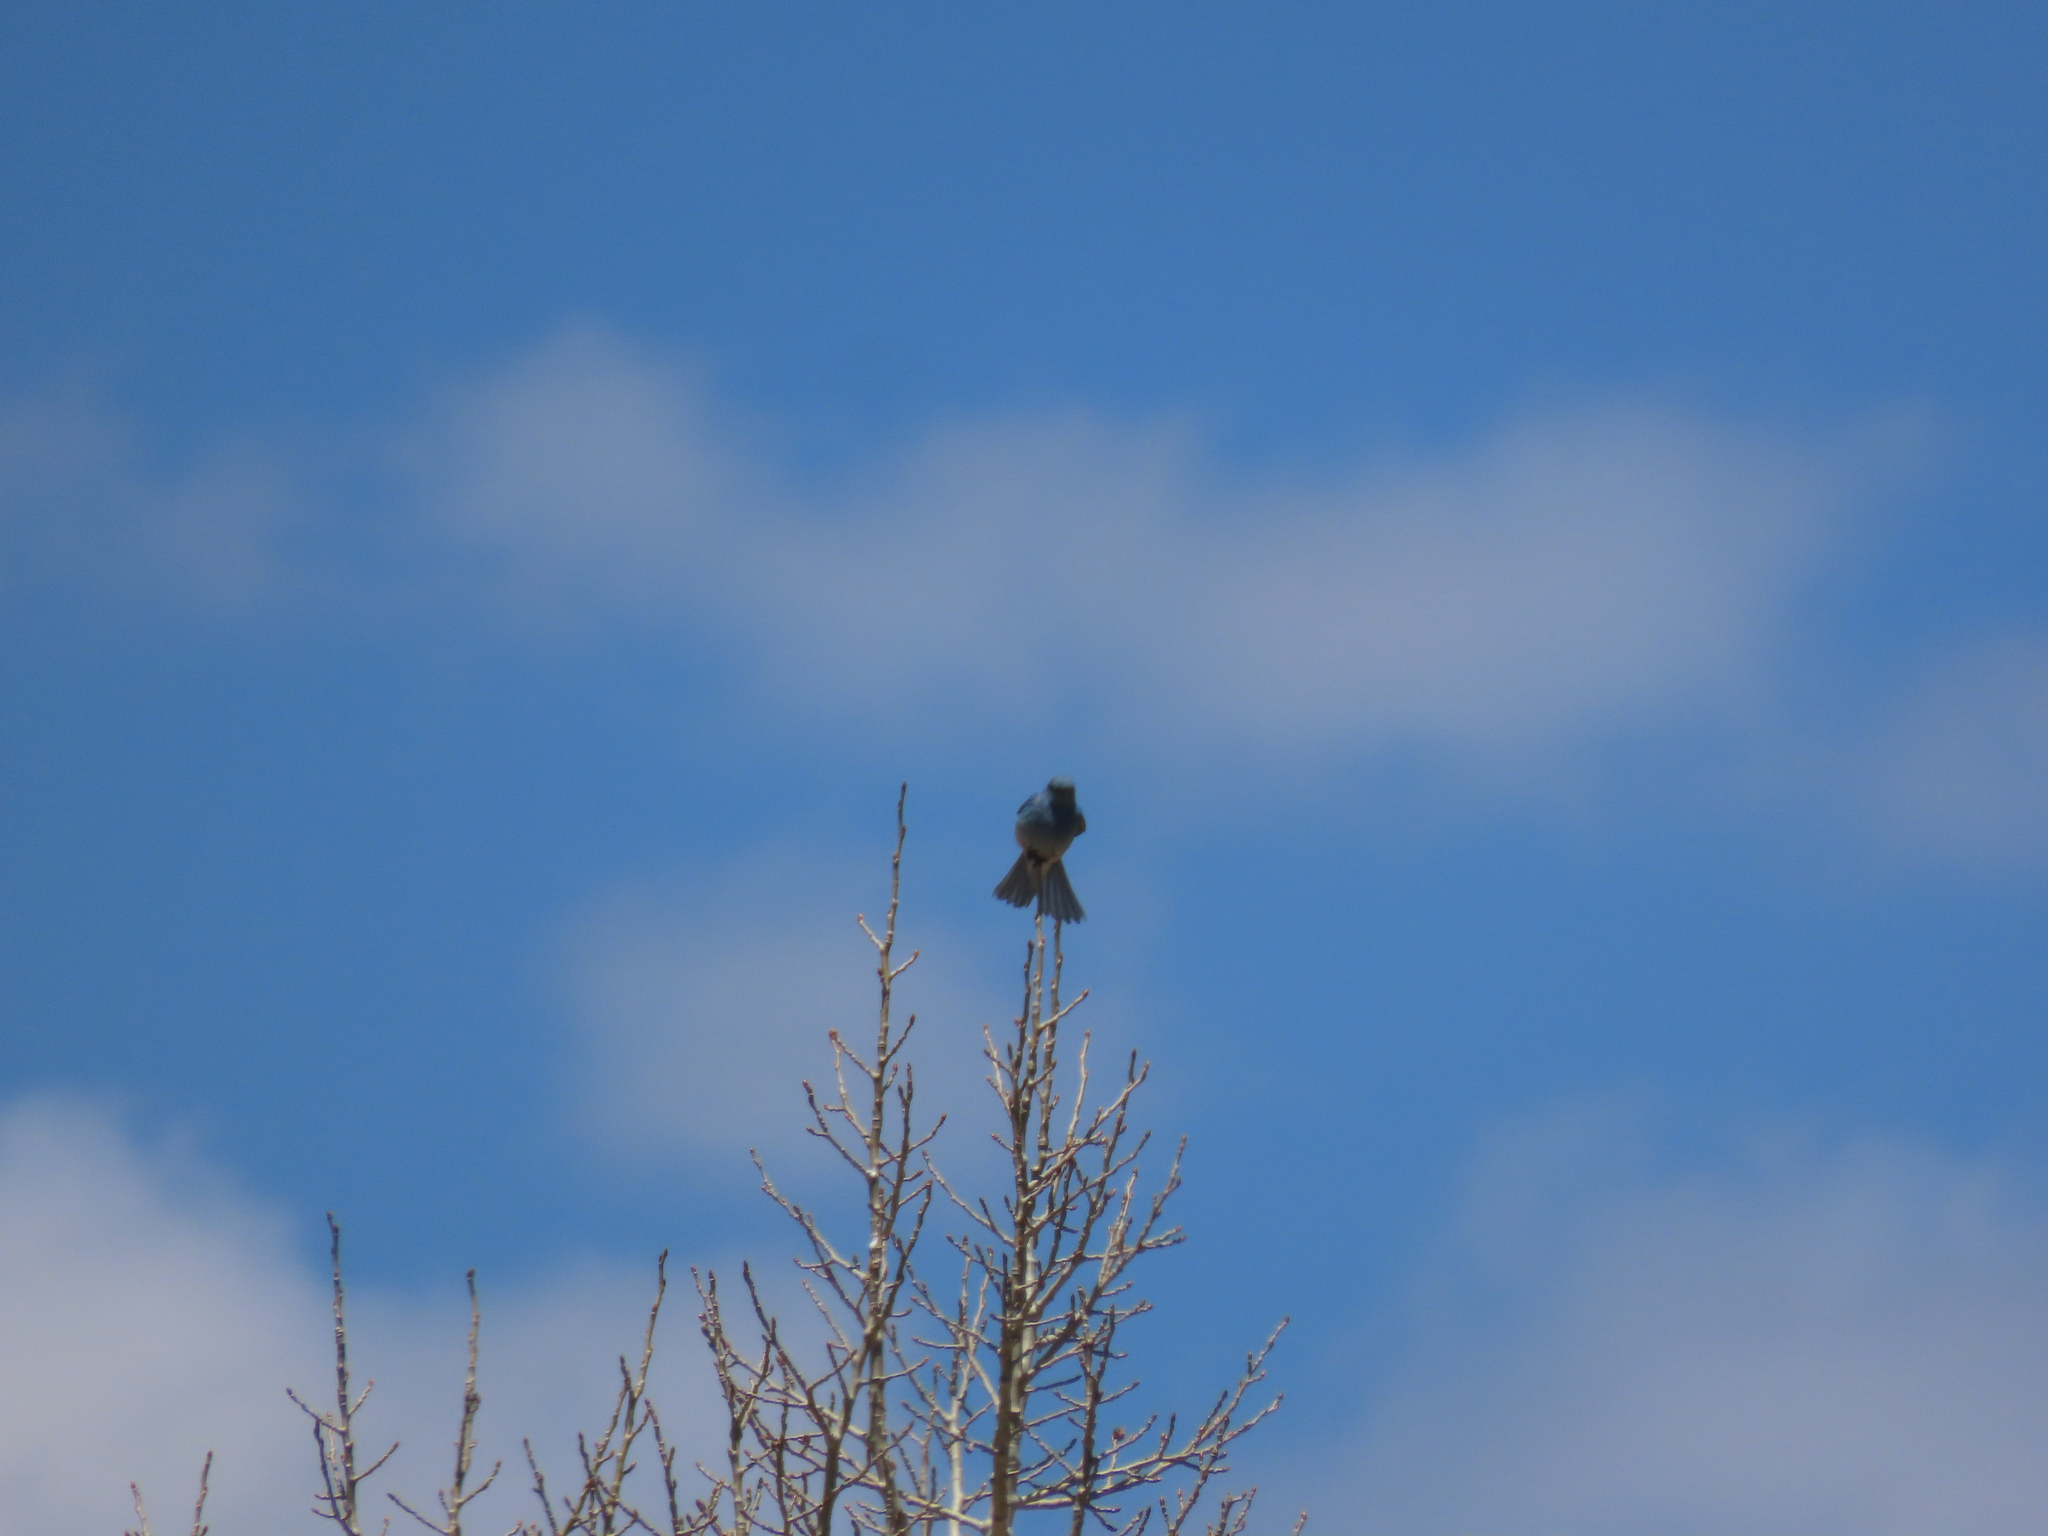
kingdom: Animalia
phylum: Chordata
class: Aves
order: Passeriformes
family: Turdidae
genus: Sialia
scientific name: Sialia currucoides
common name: Mountain bluebird
